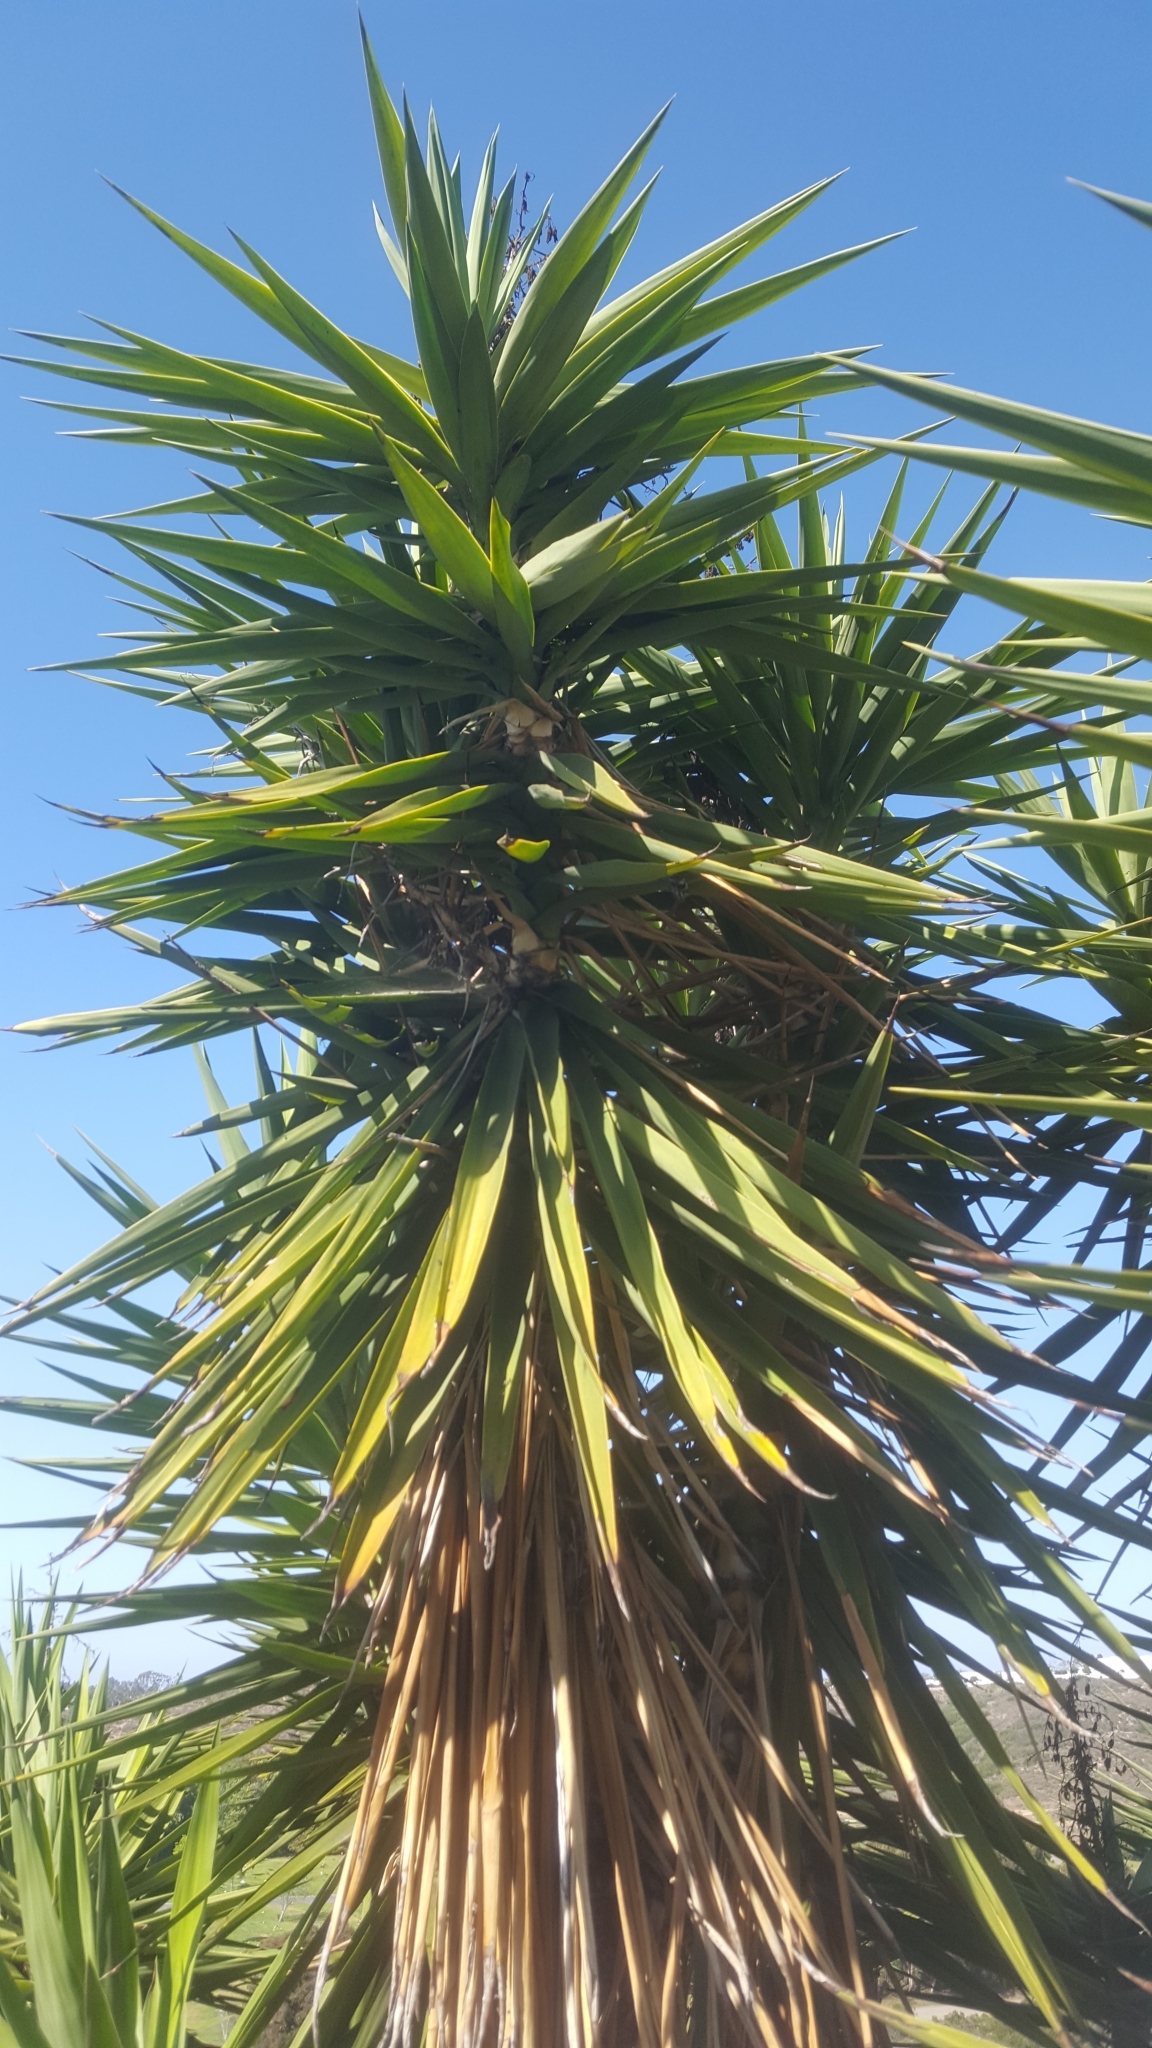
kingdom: Plantae
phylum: Tracheophyta
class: Liliopsida
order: Asparagales
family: Asparagaceae
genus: Yucca
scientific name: Yucca gigantea
